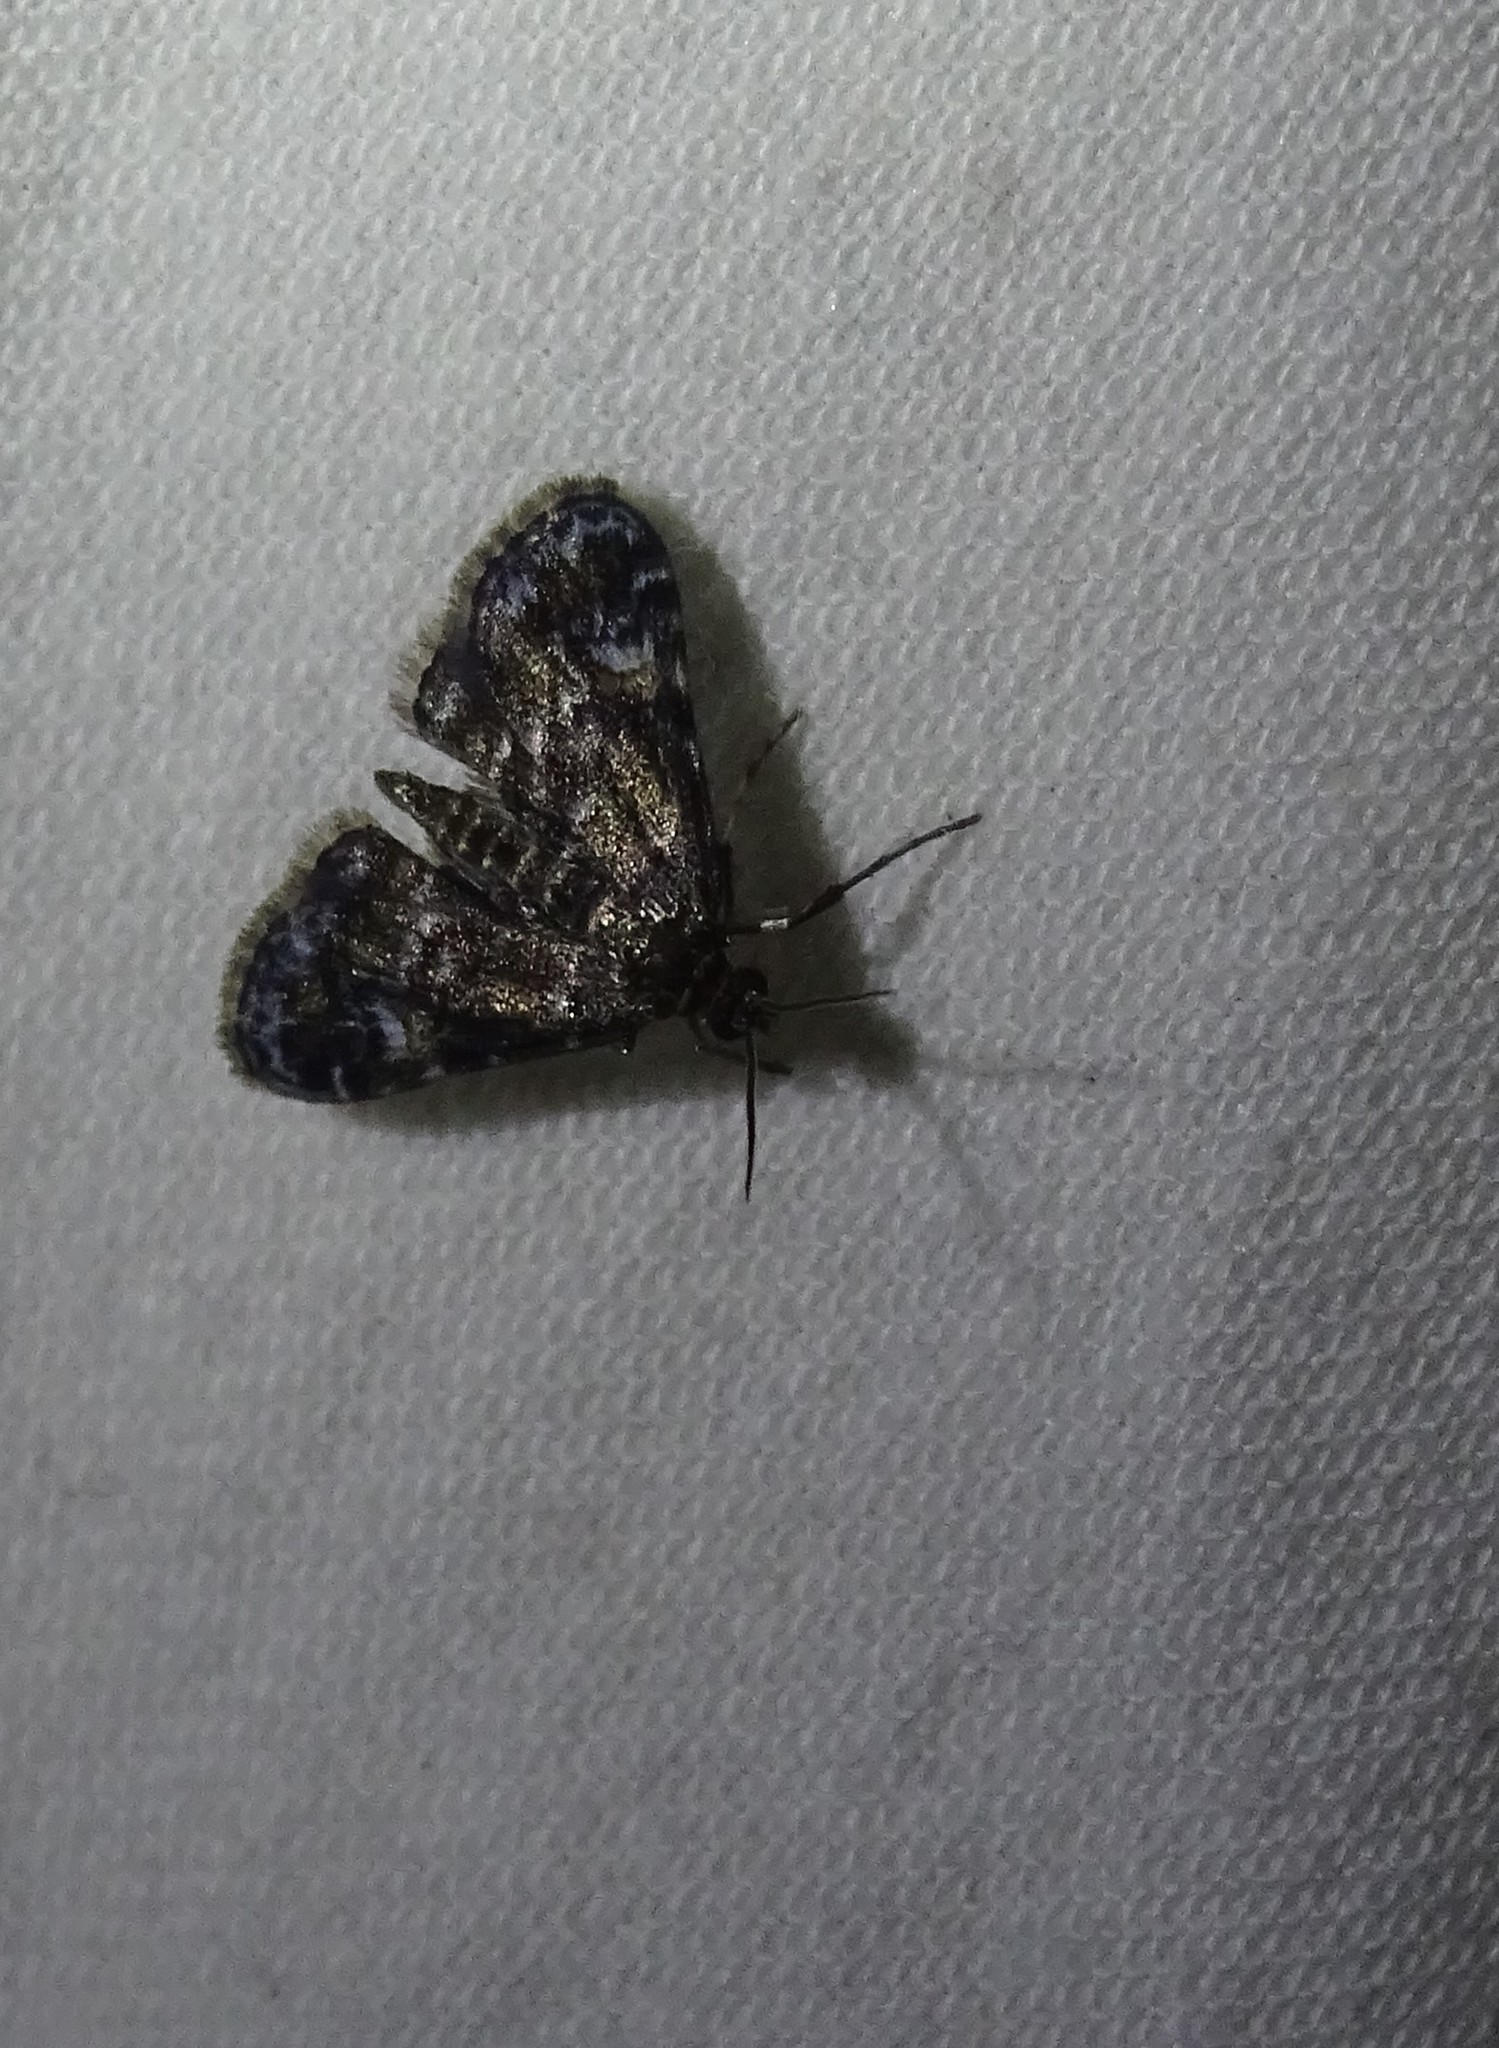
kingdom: Animalia
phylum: Arthropoda
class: Insecta
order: Lepidoptera
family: Crambidae
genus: Elophila
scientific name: Elophila obliteralis
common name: Waterlily leafcutter moth
